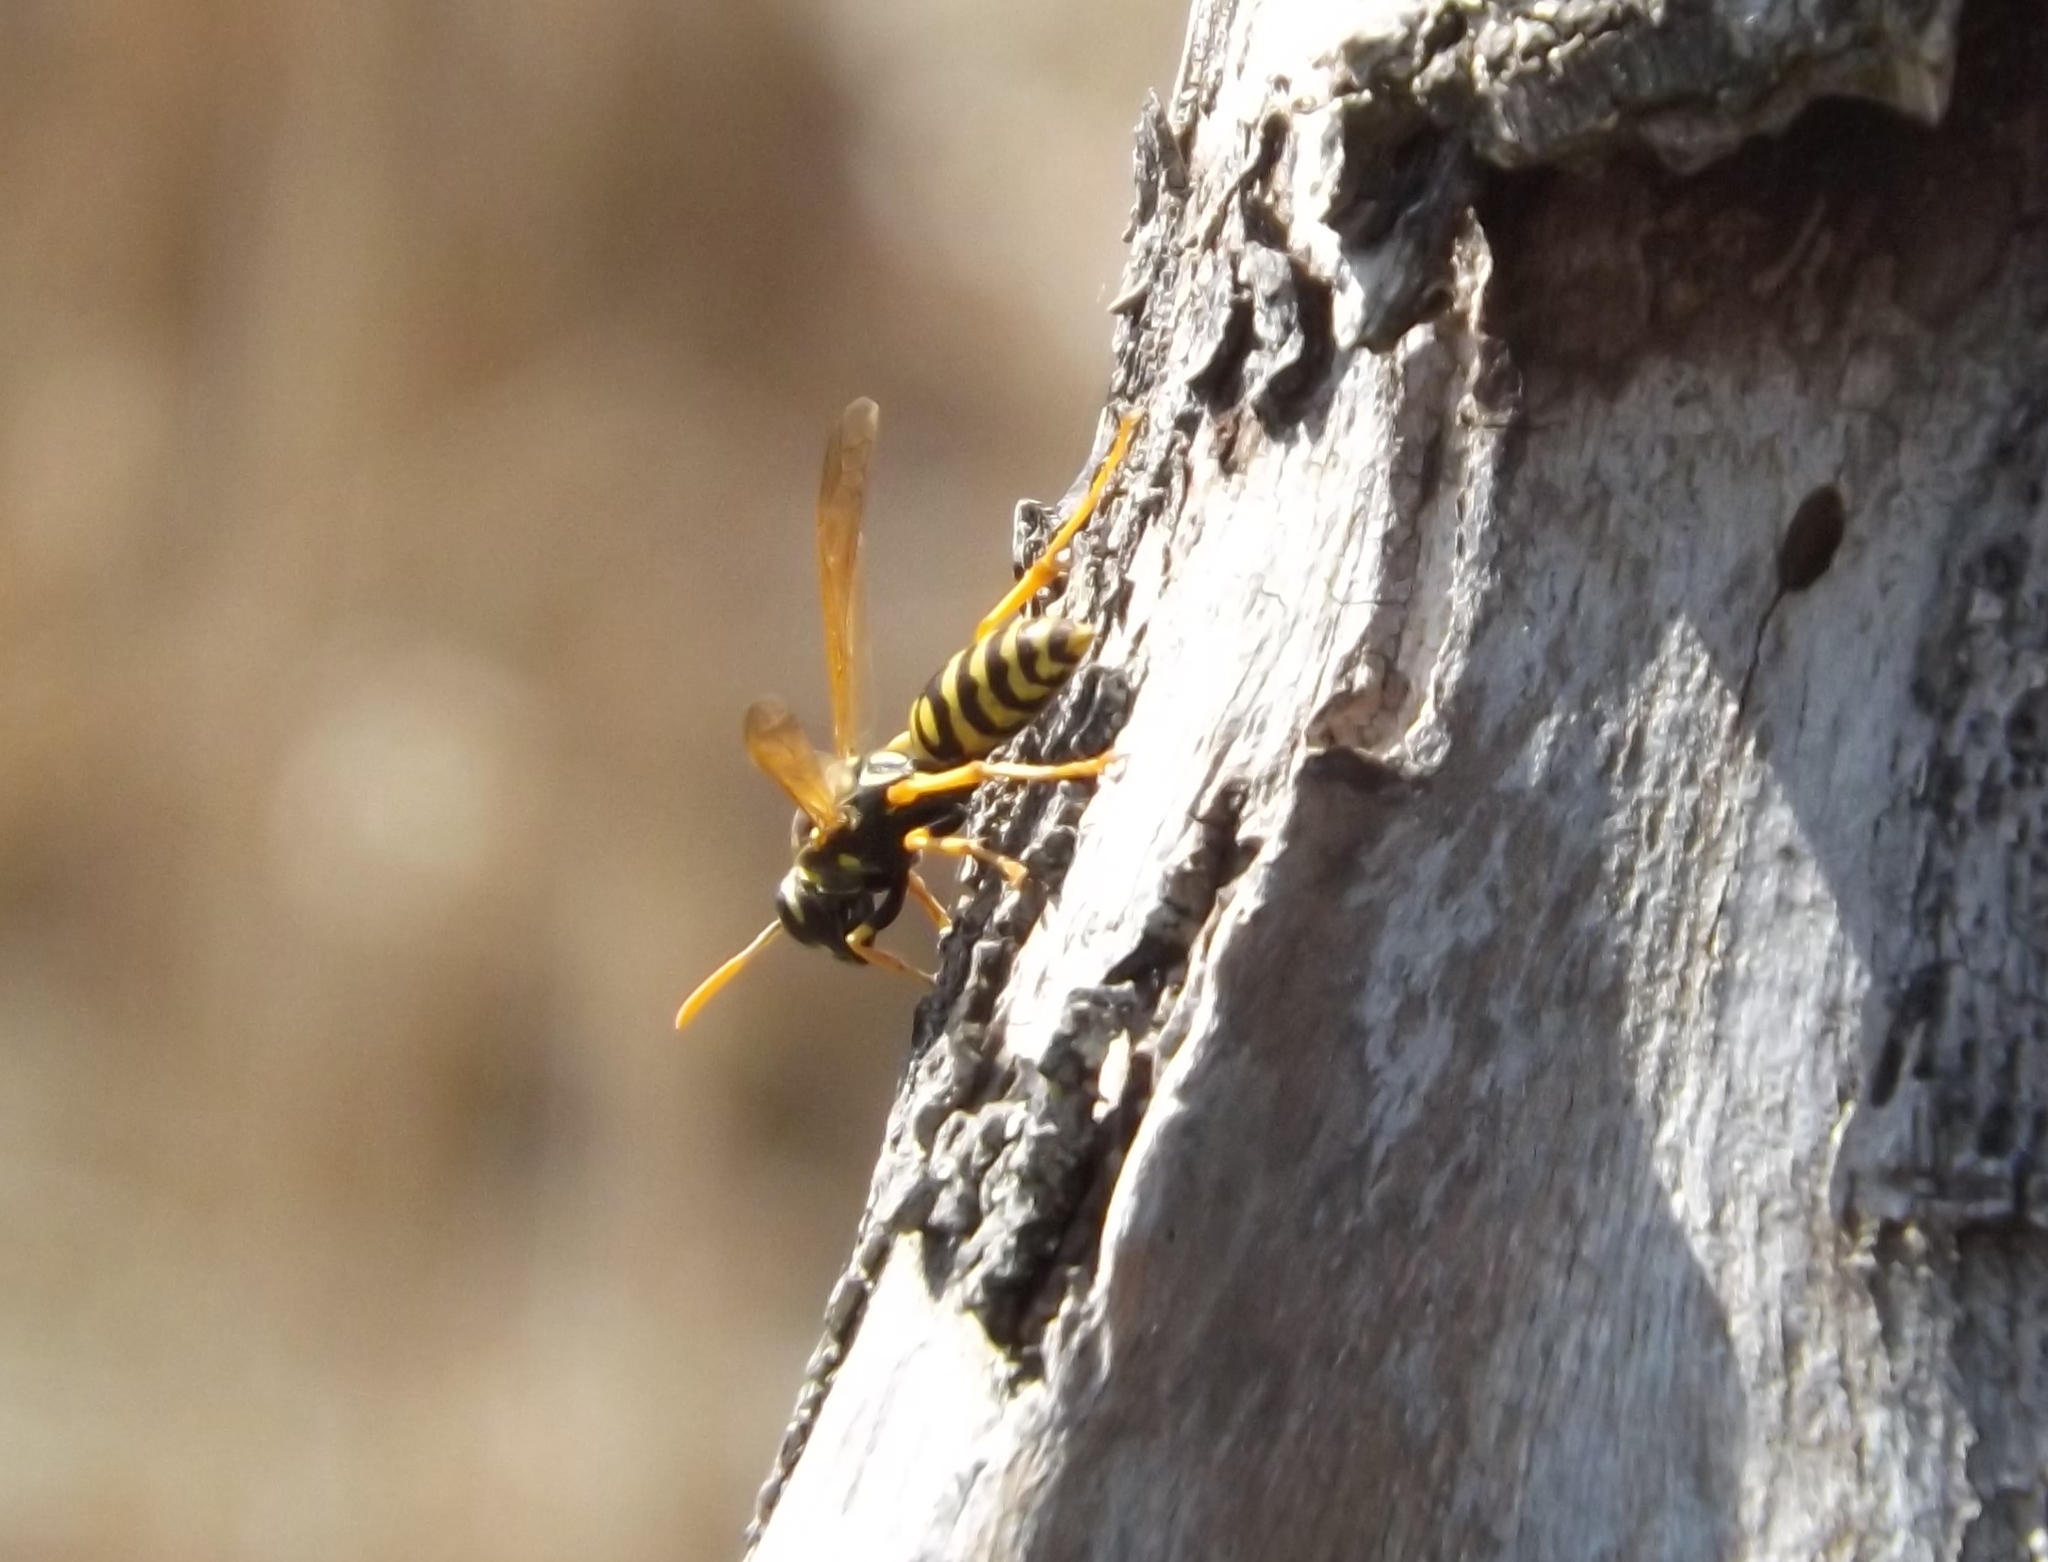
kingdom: Animalia
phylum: Arthropoda
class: Insecta
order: Hymenoptera
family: Eumenidae
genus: Polistes
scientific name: Polistes dominula
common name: Paper wasp
